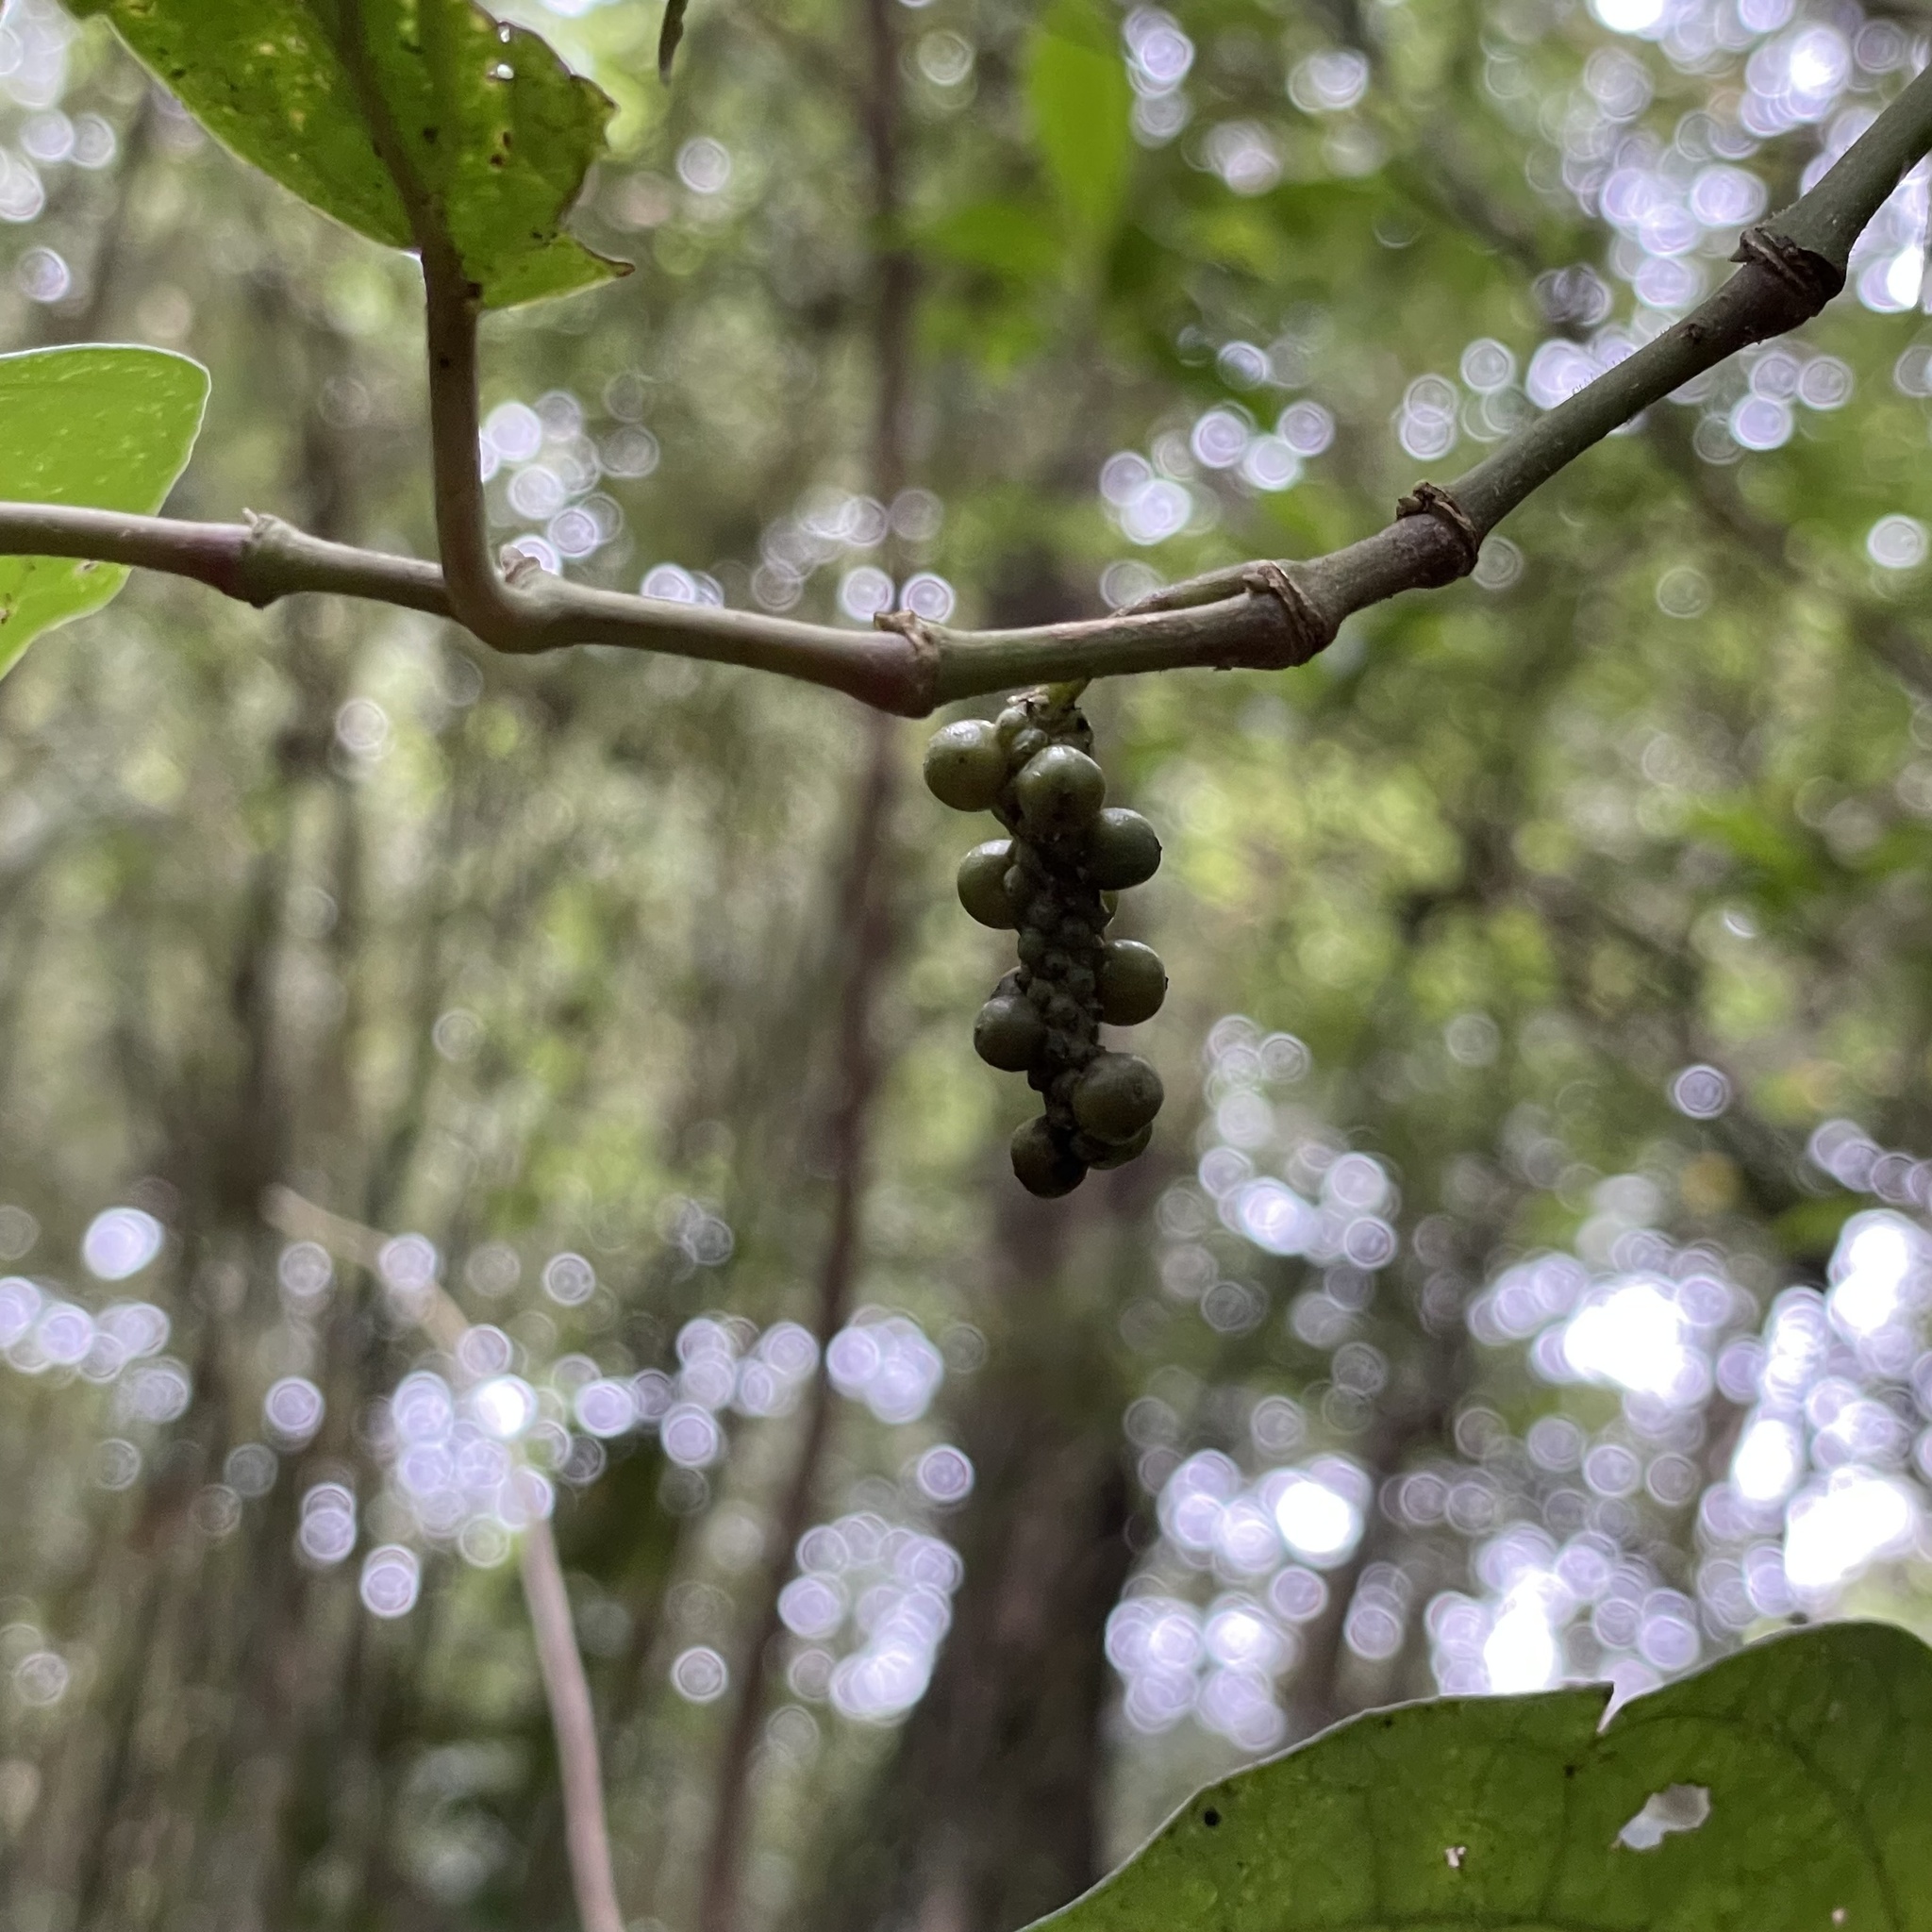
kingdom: Plantae
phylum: Tracheophyta
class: Magnoliopsida
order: Piperales
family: Piperaceae
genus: Piper
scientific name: Piper kadsura
